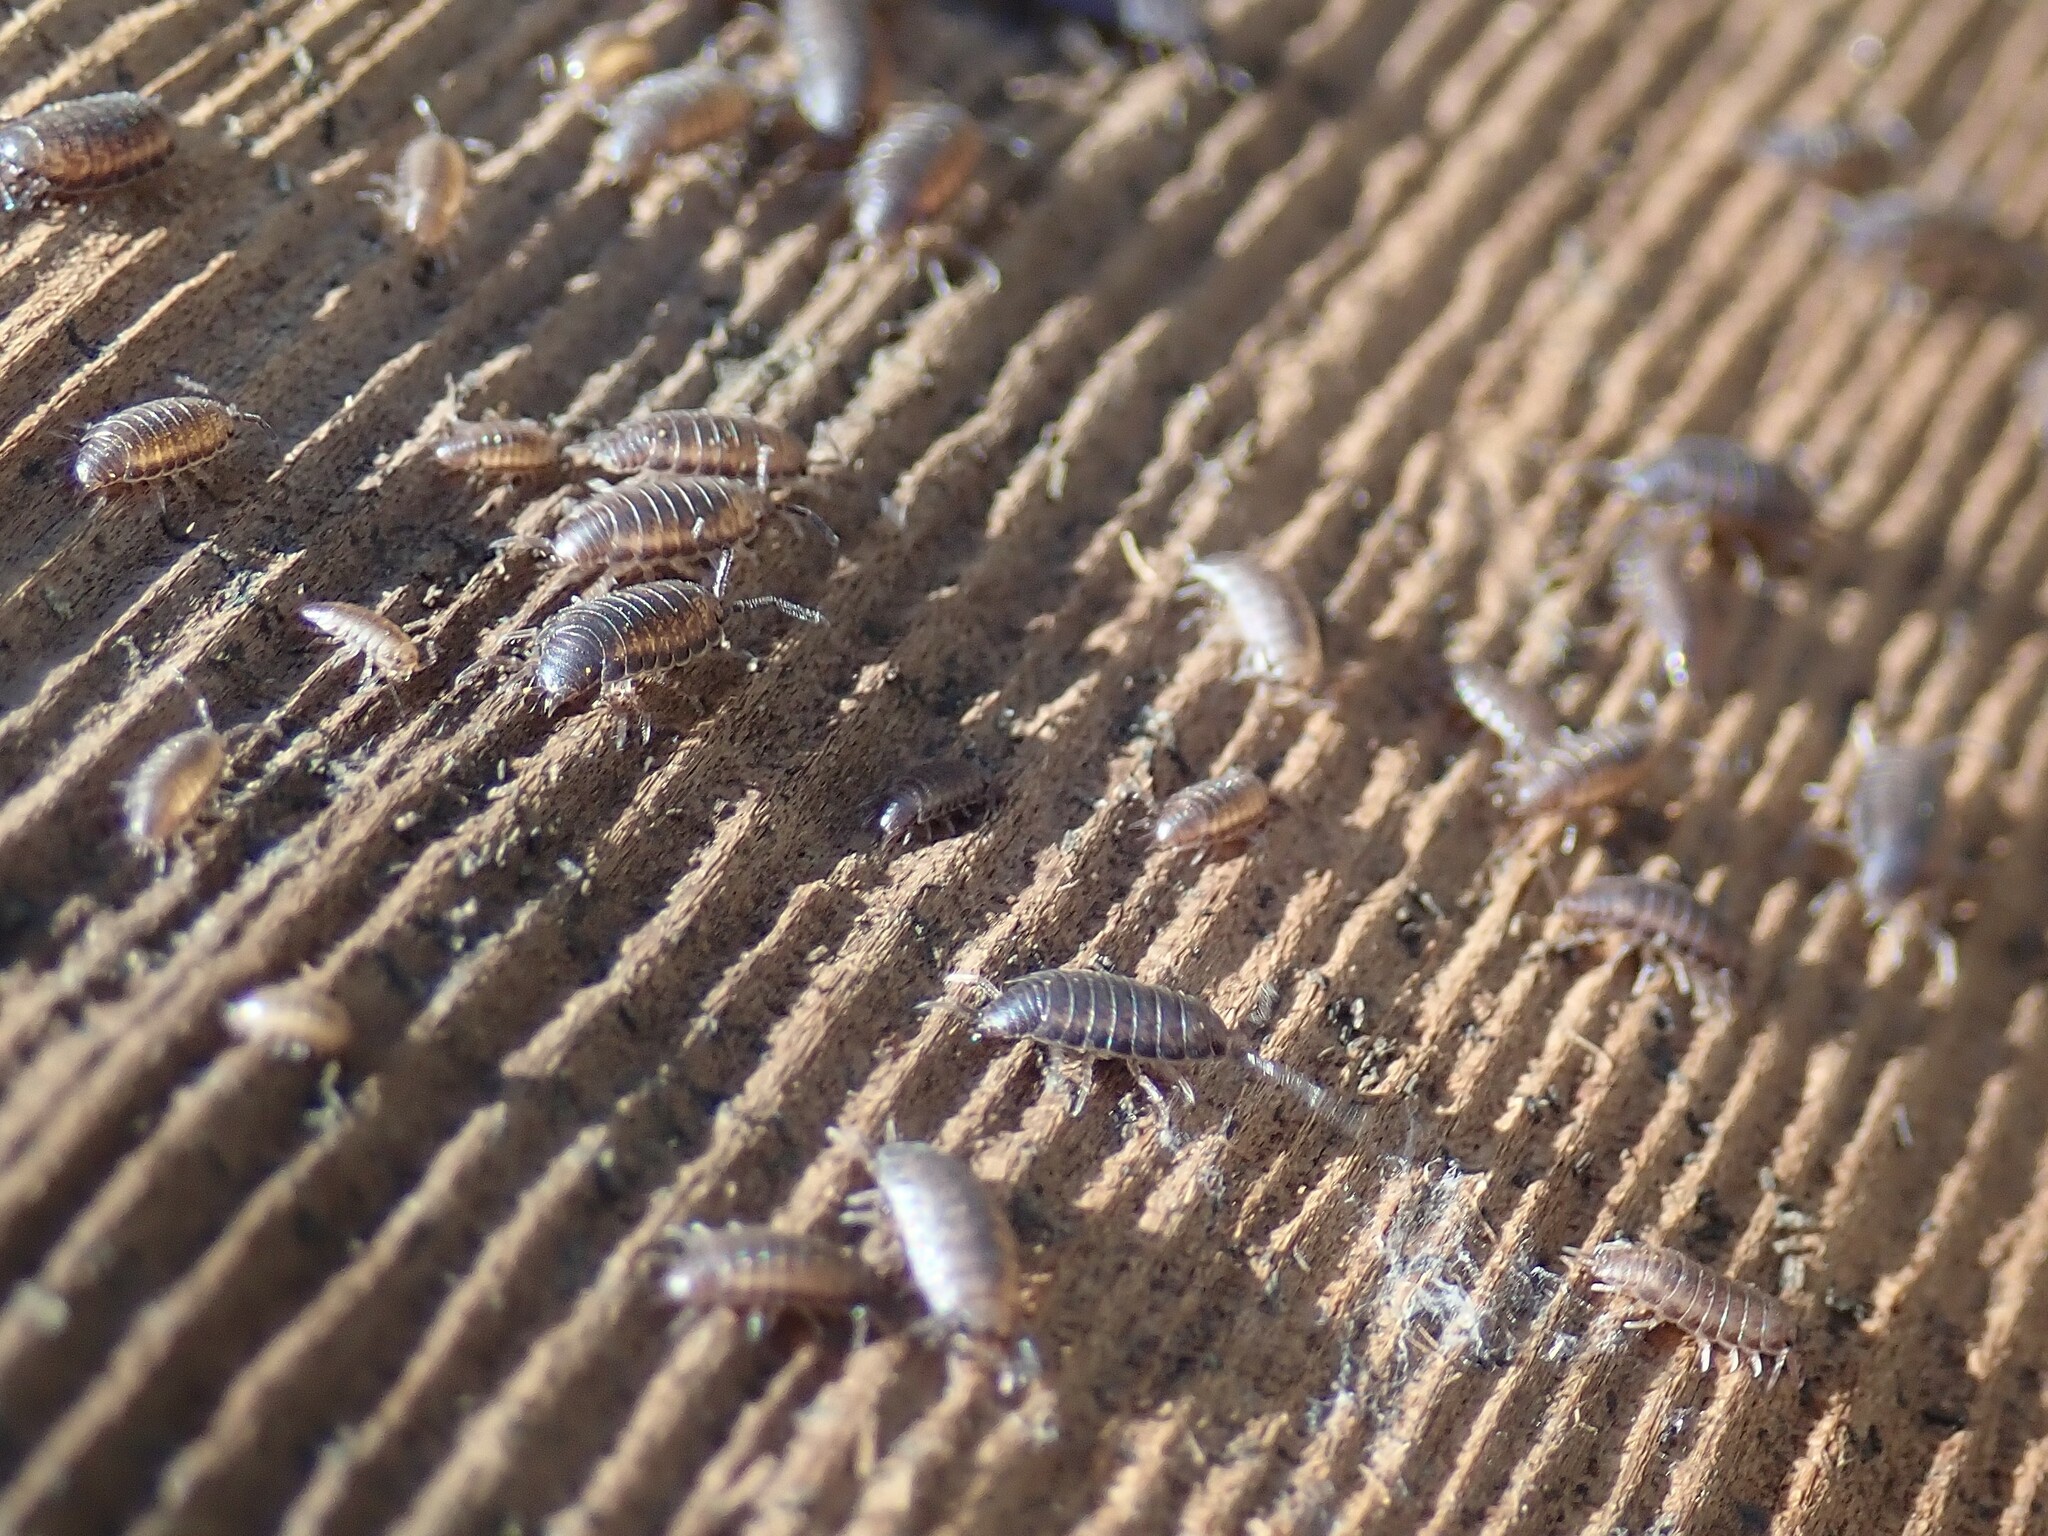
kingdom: Animalia
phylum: Arthropoda
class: Malacostraca
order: Isopoda
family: Halophilosciidae
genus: Littorophiloscia
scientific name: Littorophiloscia richardsonae
